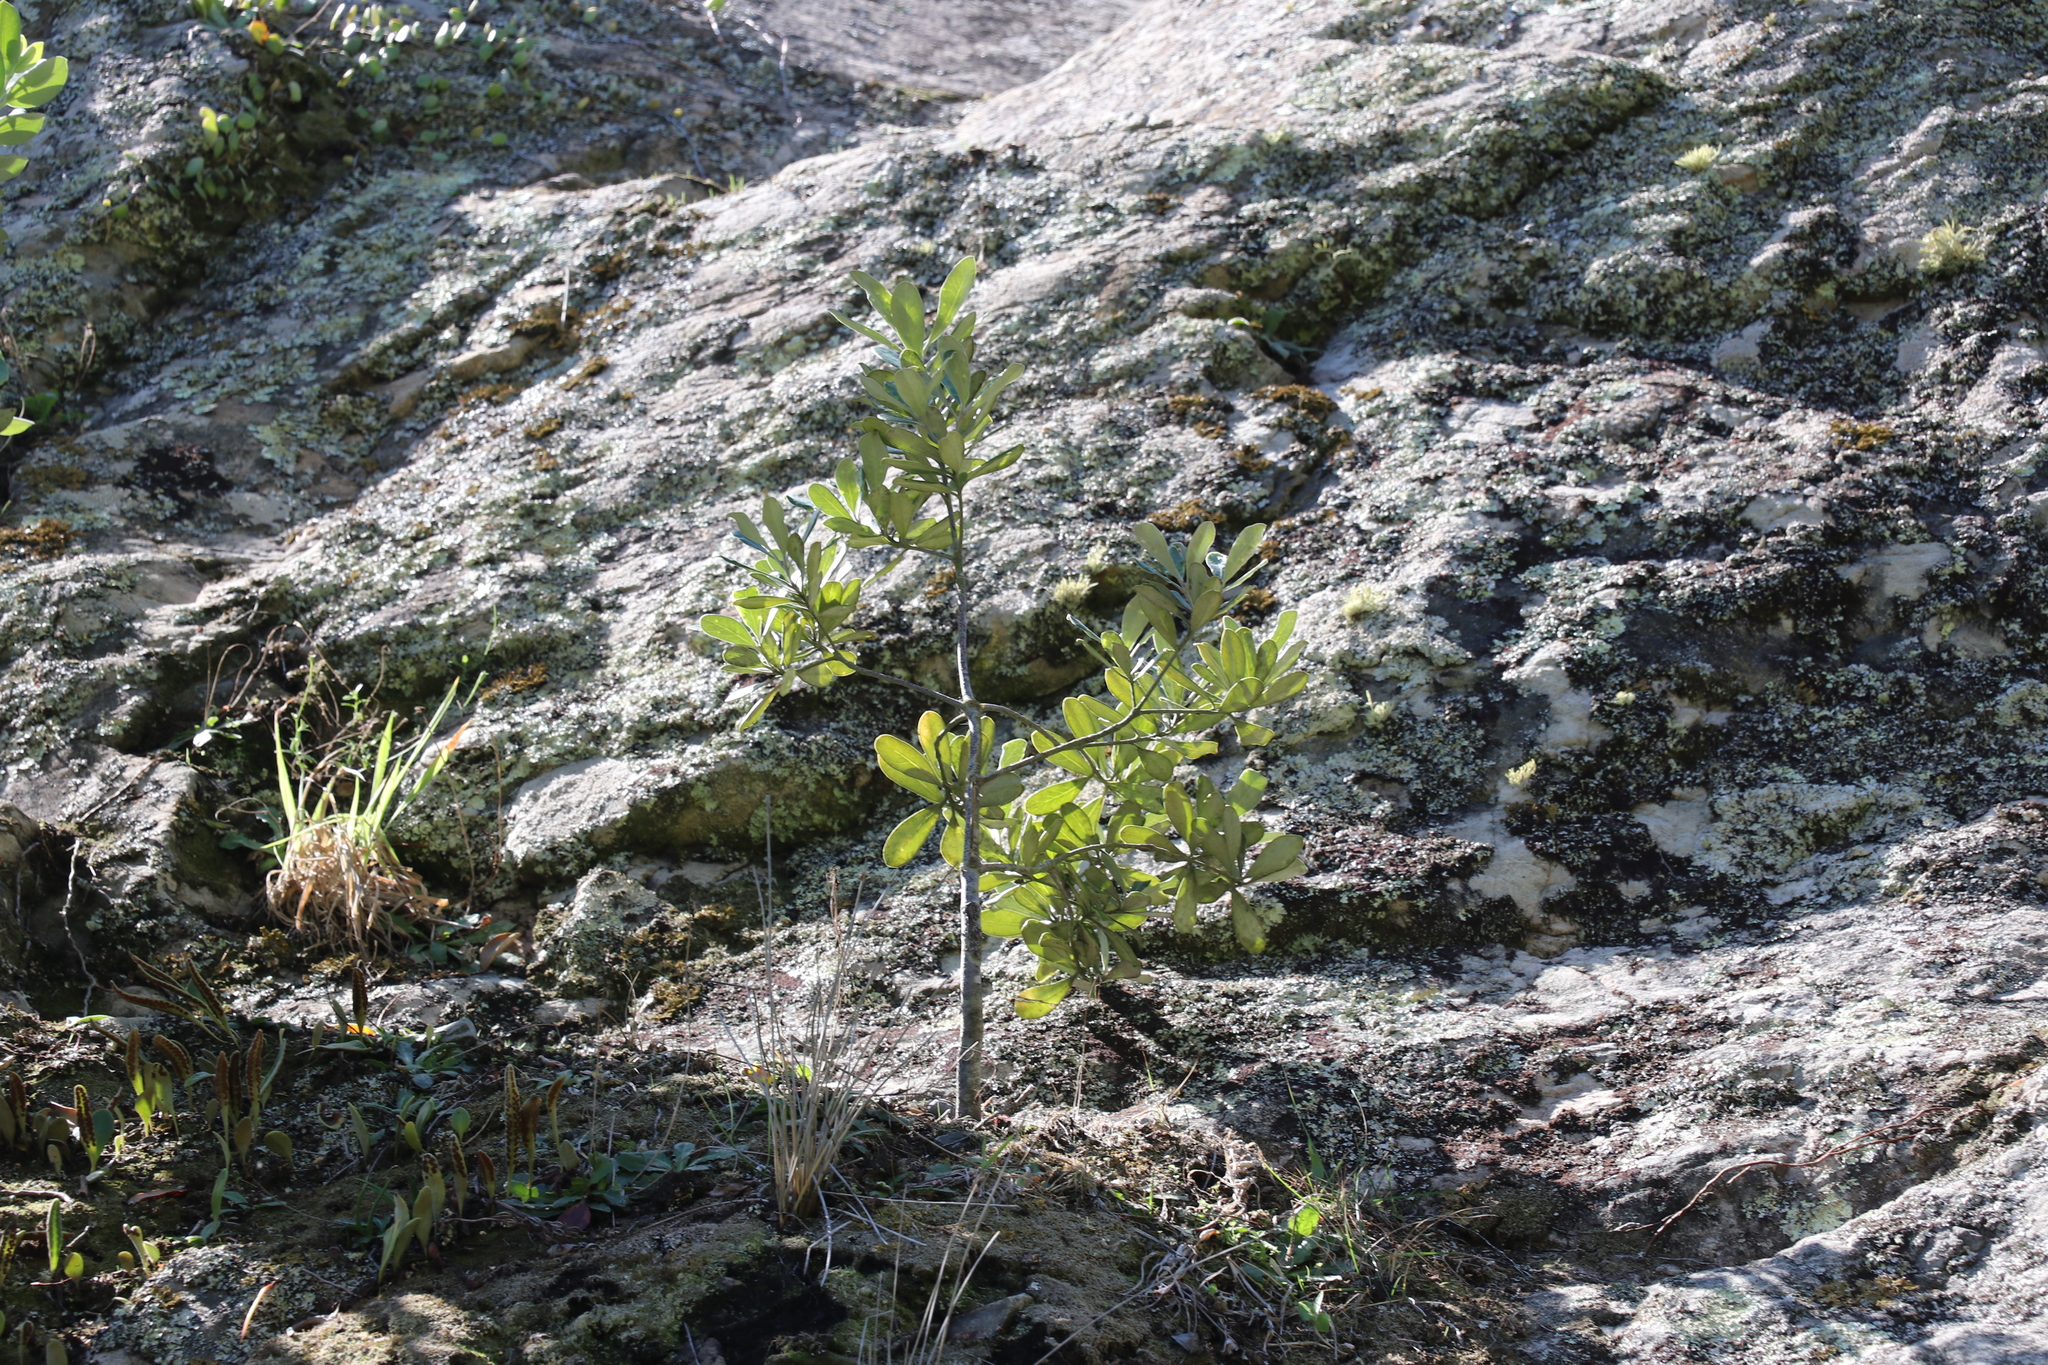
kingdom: Plantae
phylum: Tracheophyta
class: Magnoliopsida
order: Apiales
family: Pittosporaceae
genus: Pittosporum
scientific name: Pittosporum crassifolium
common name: Karo
